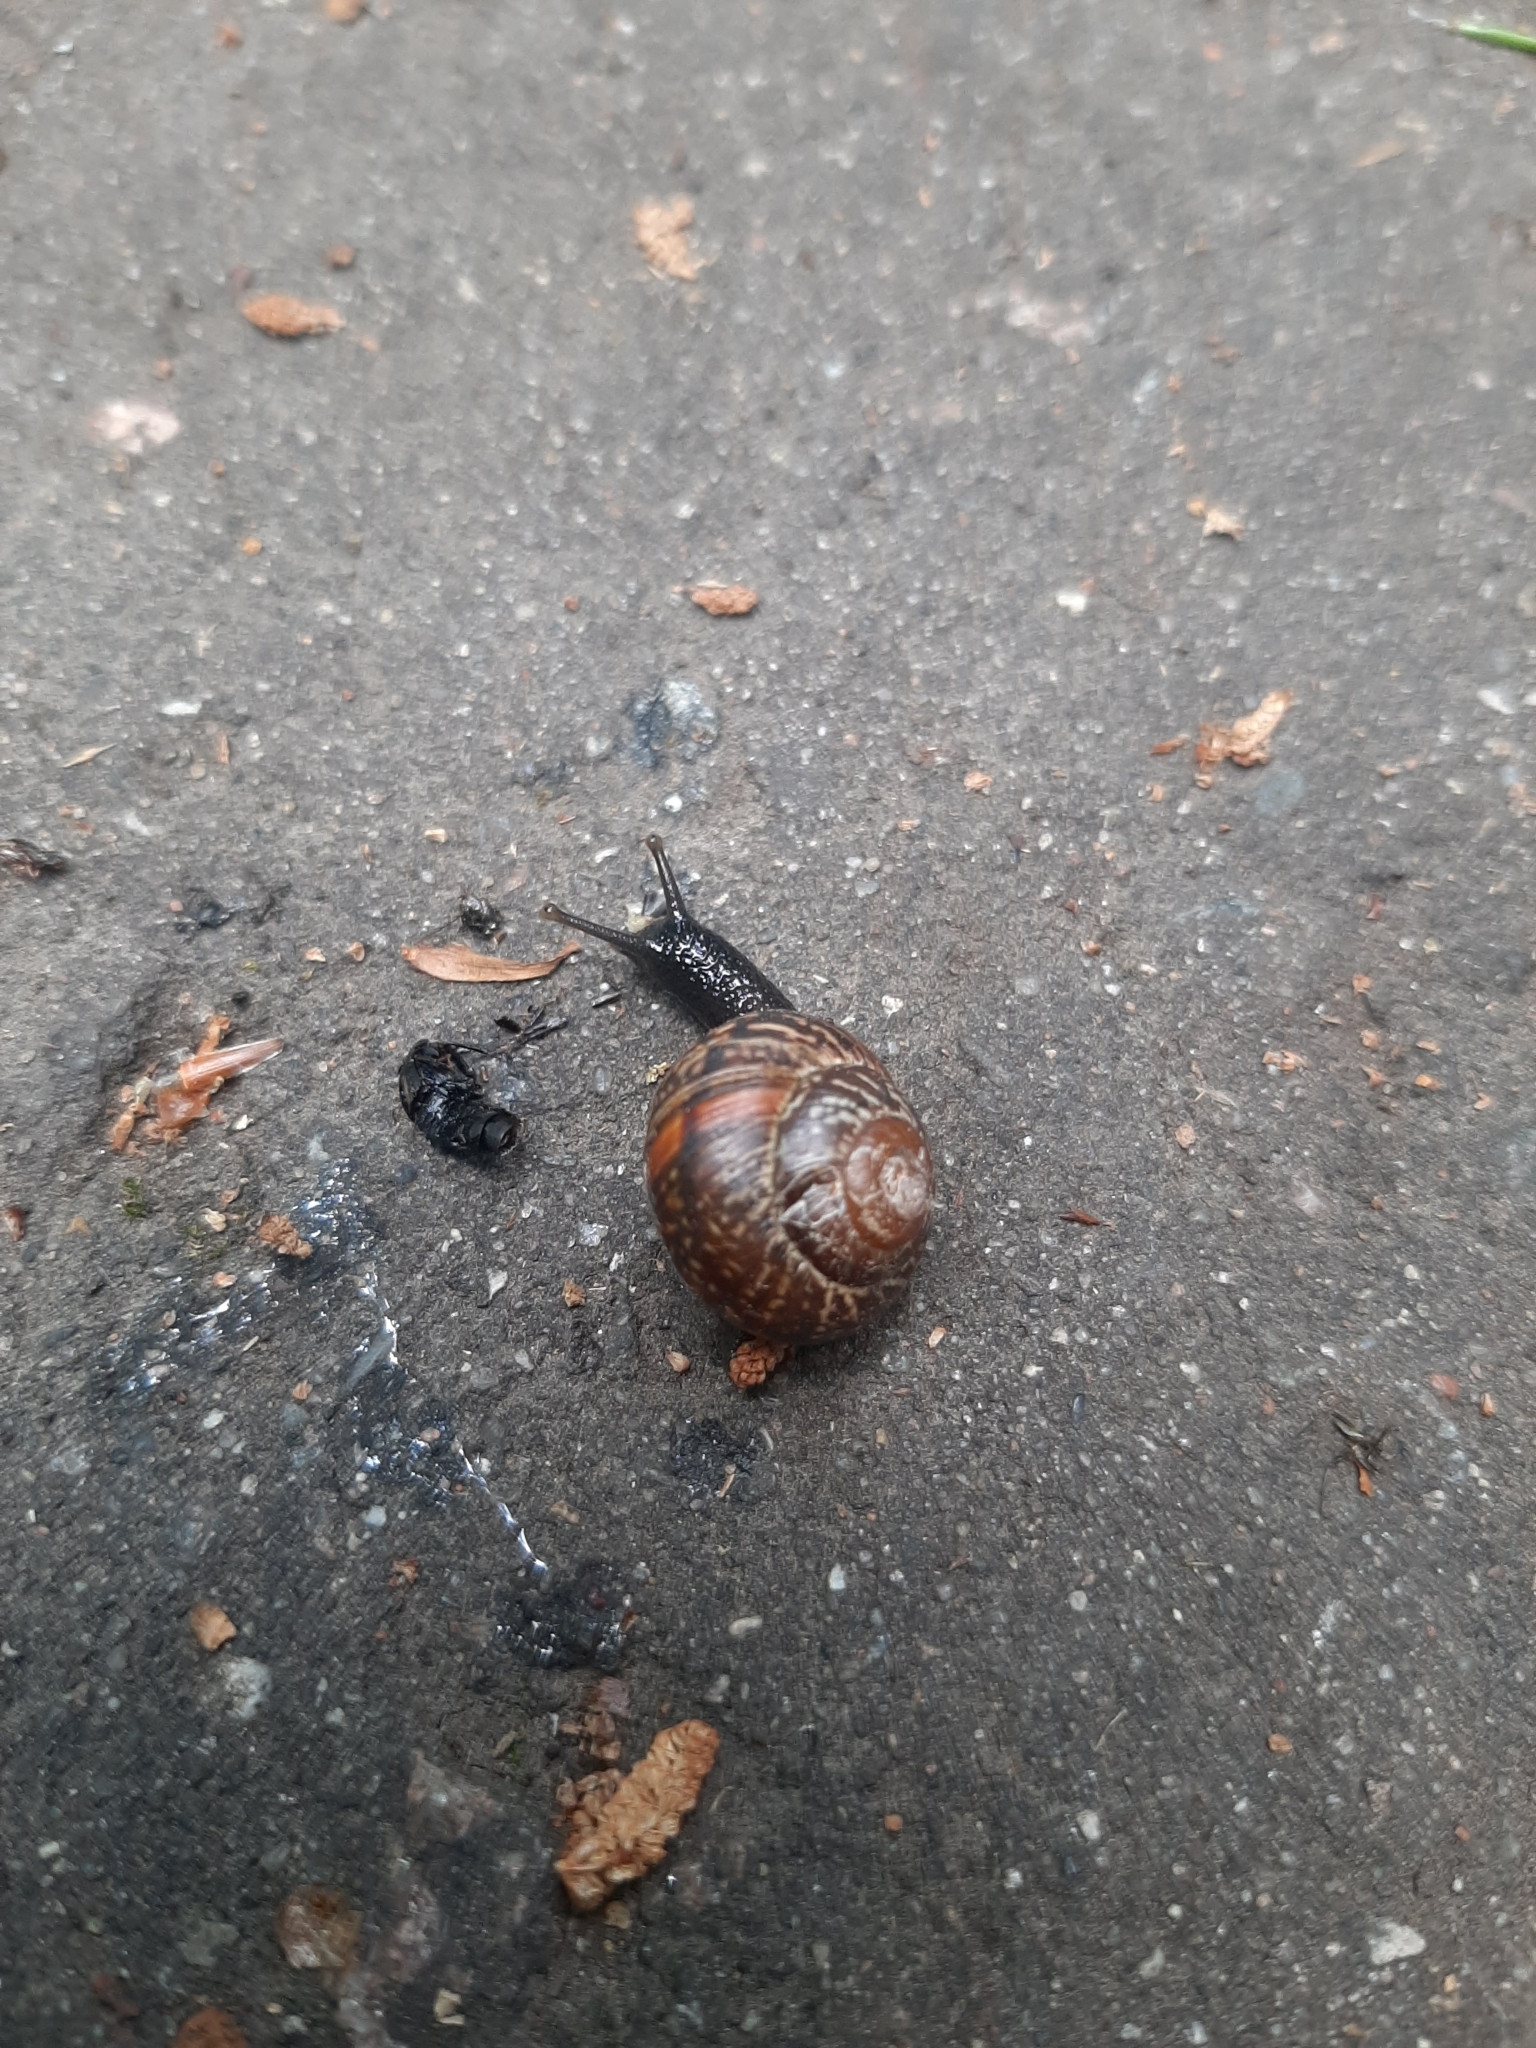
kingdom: Animalia
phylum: Mollusca
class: Gastropoda
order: Stylommatophora
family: Helicidae
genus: Arianta
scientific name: Arianta arbustorum
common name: Copse snail
